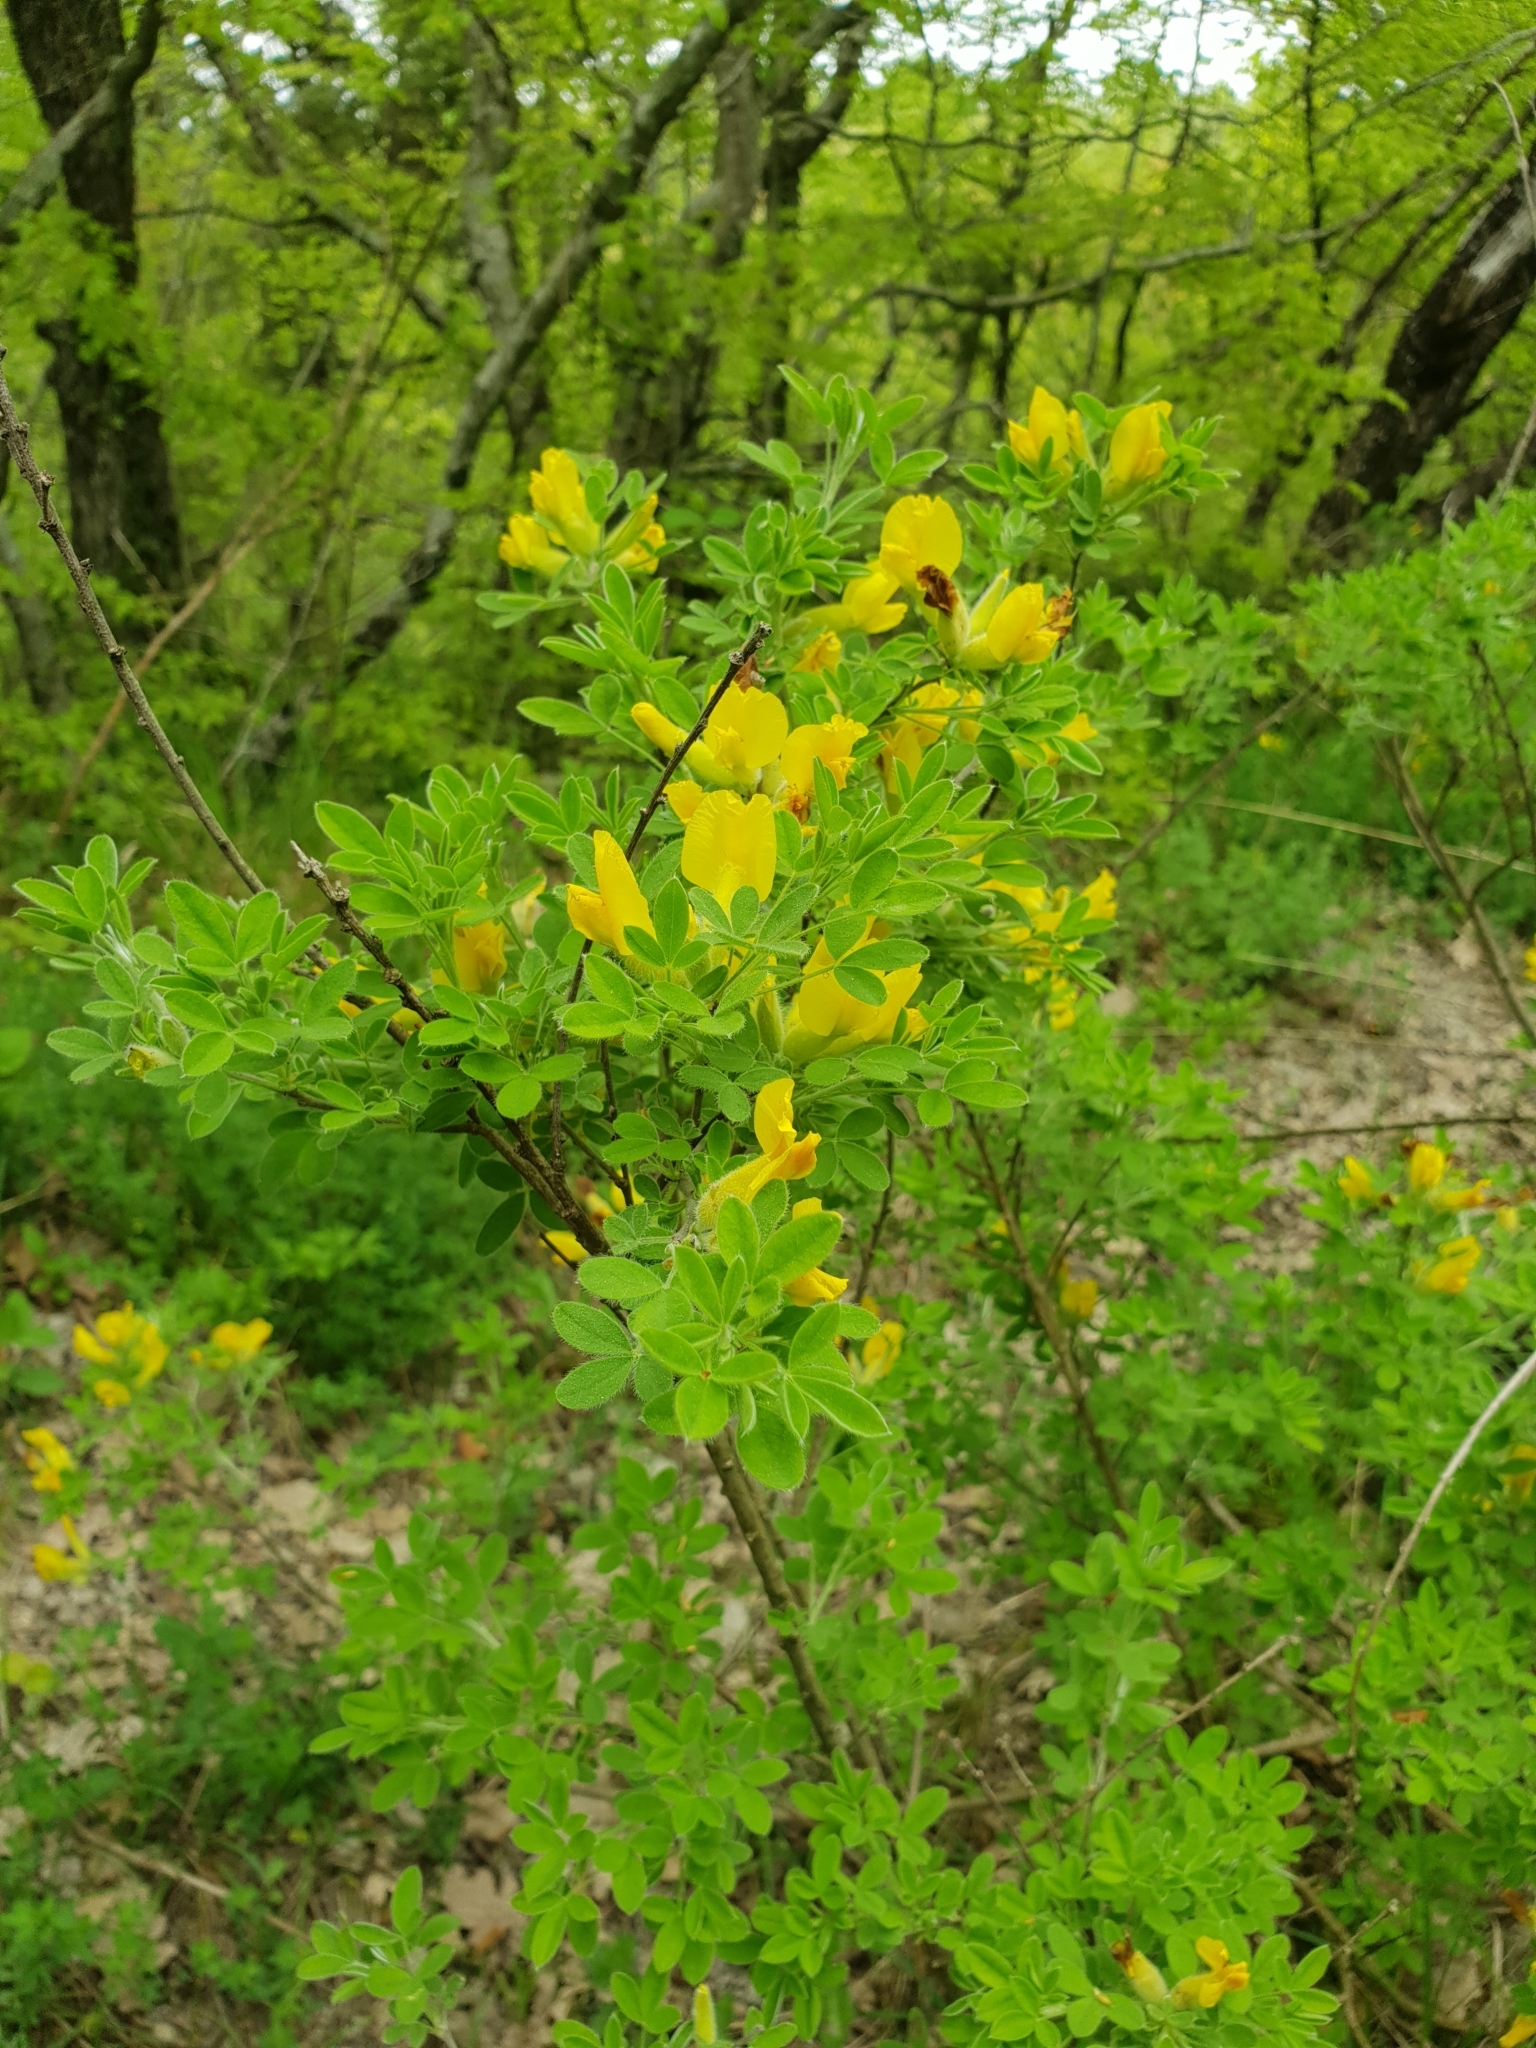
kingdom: Plantae
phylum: Tracheophyta
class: Magnoliopsida
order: Fabales
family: Fabaceae
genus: Chamaecytisus
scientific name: Chamaecytisus ruthenicus
